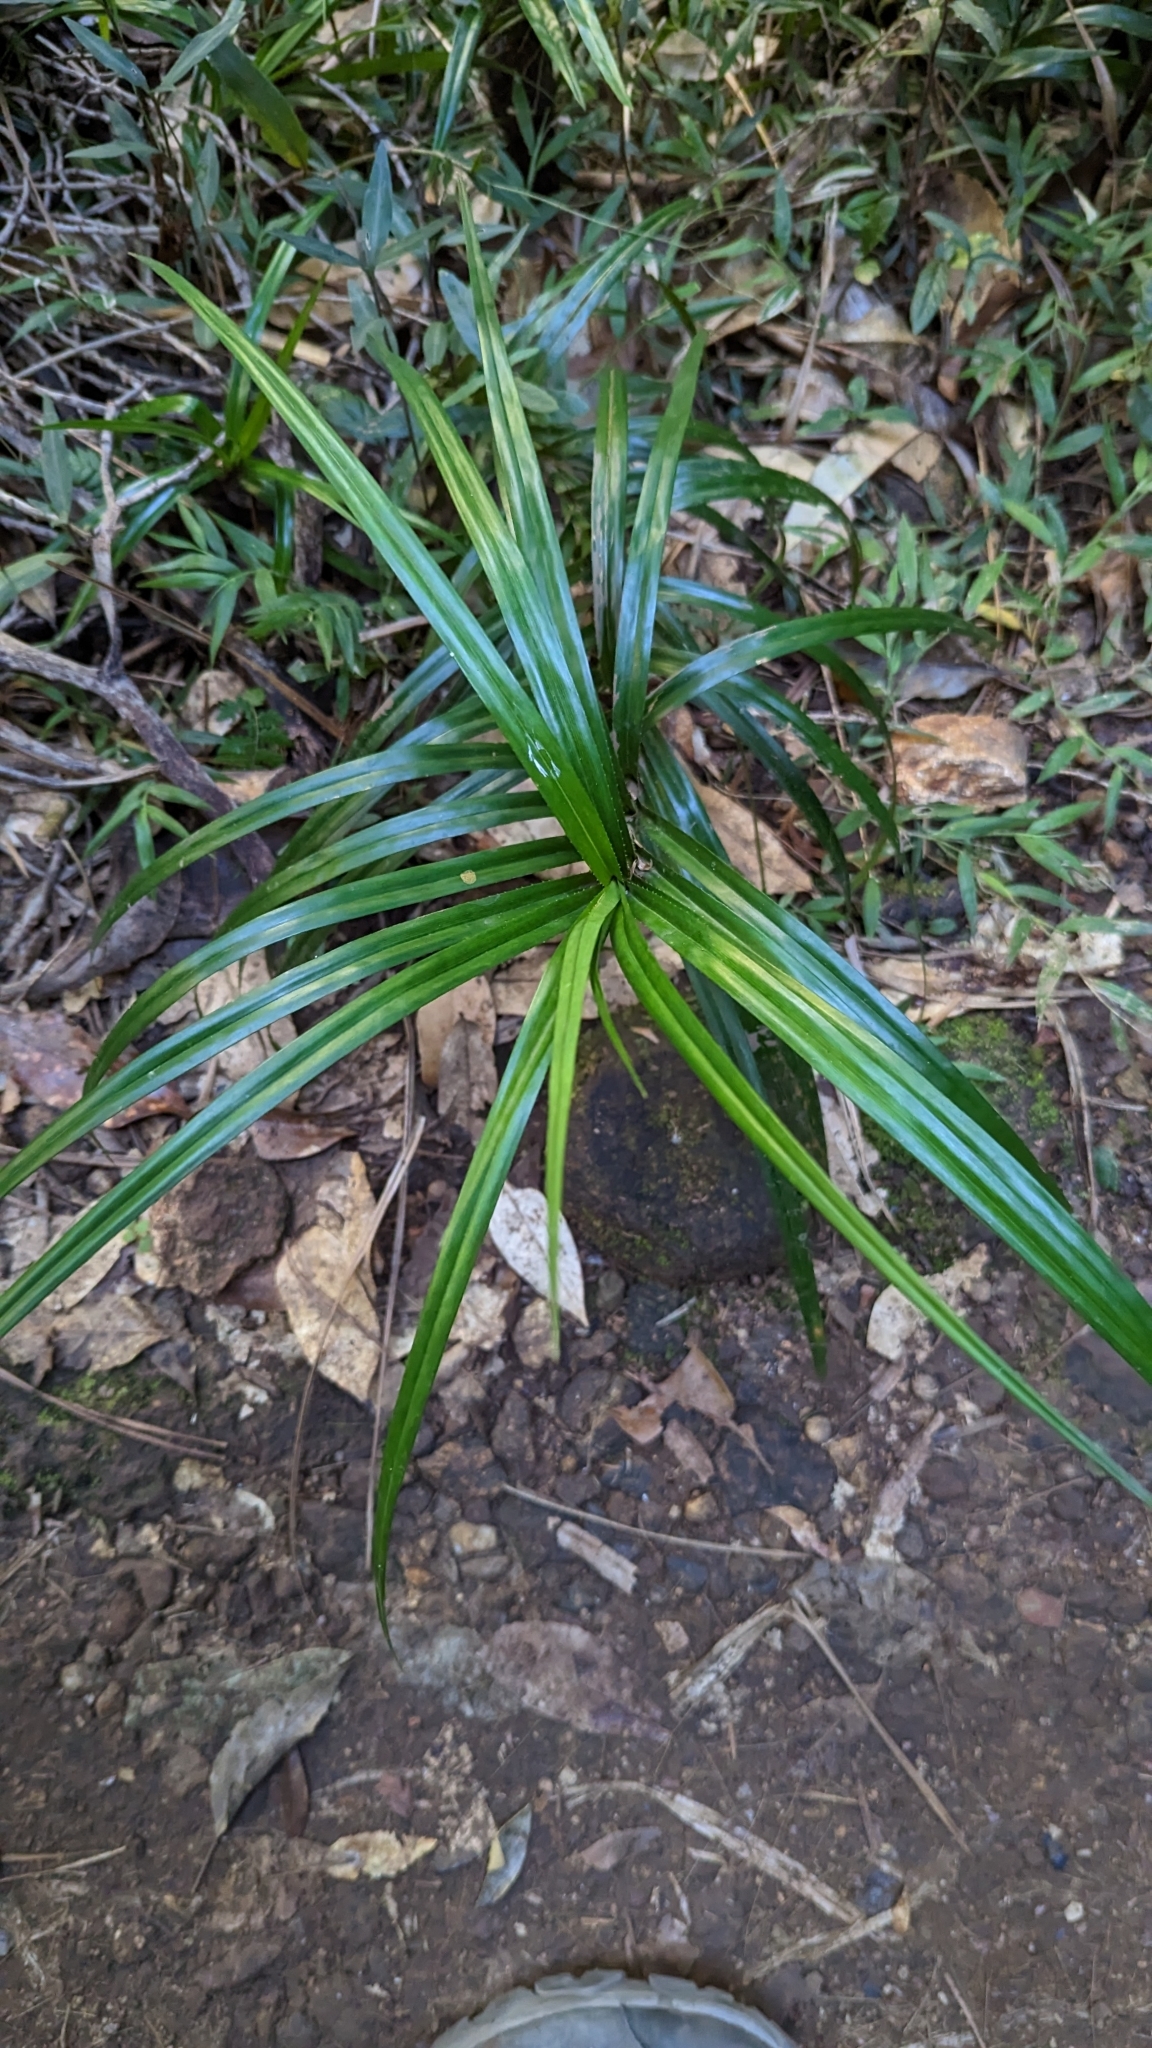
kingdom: Plantae
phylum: Tracheophyta
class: Liliopsida
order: Pandanales
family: Pandanaceae
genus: Freycinetia
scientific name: Freycinetia excelsa
